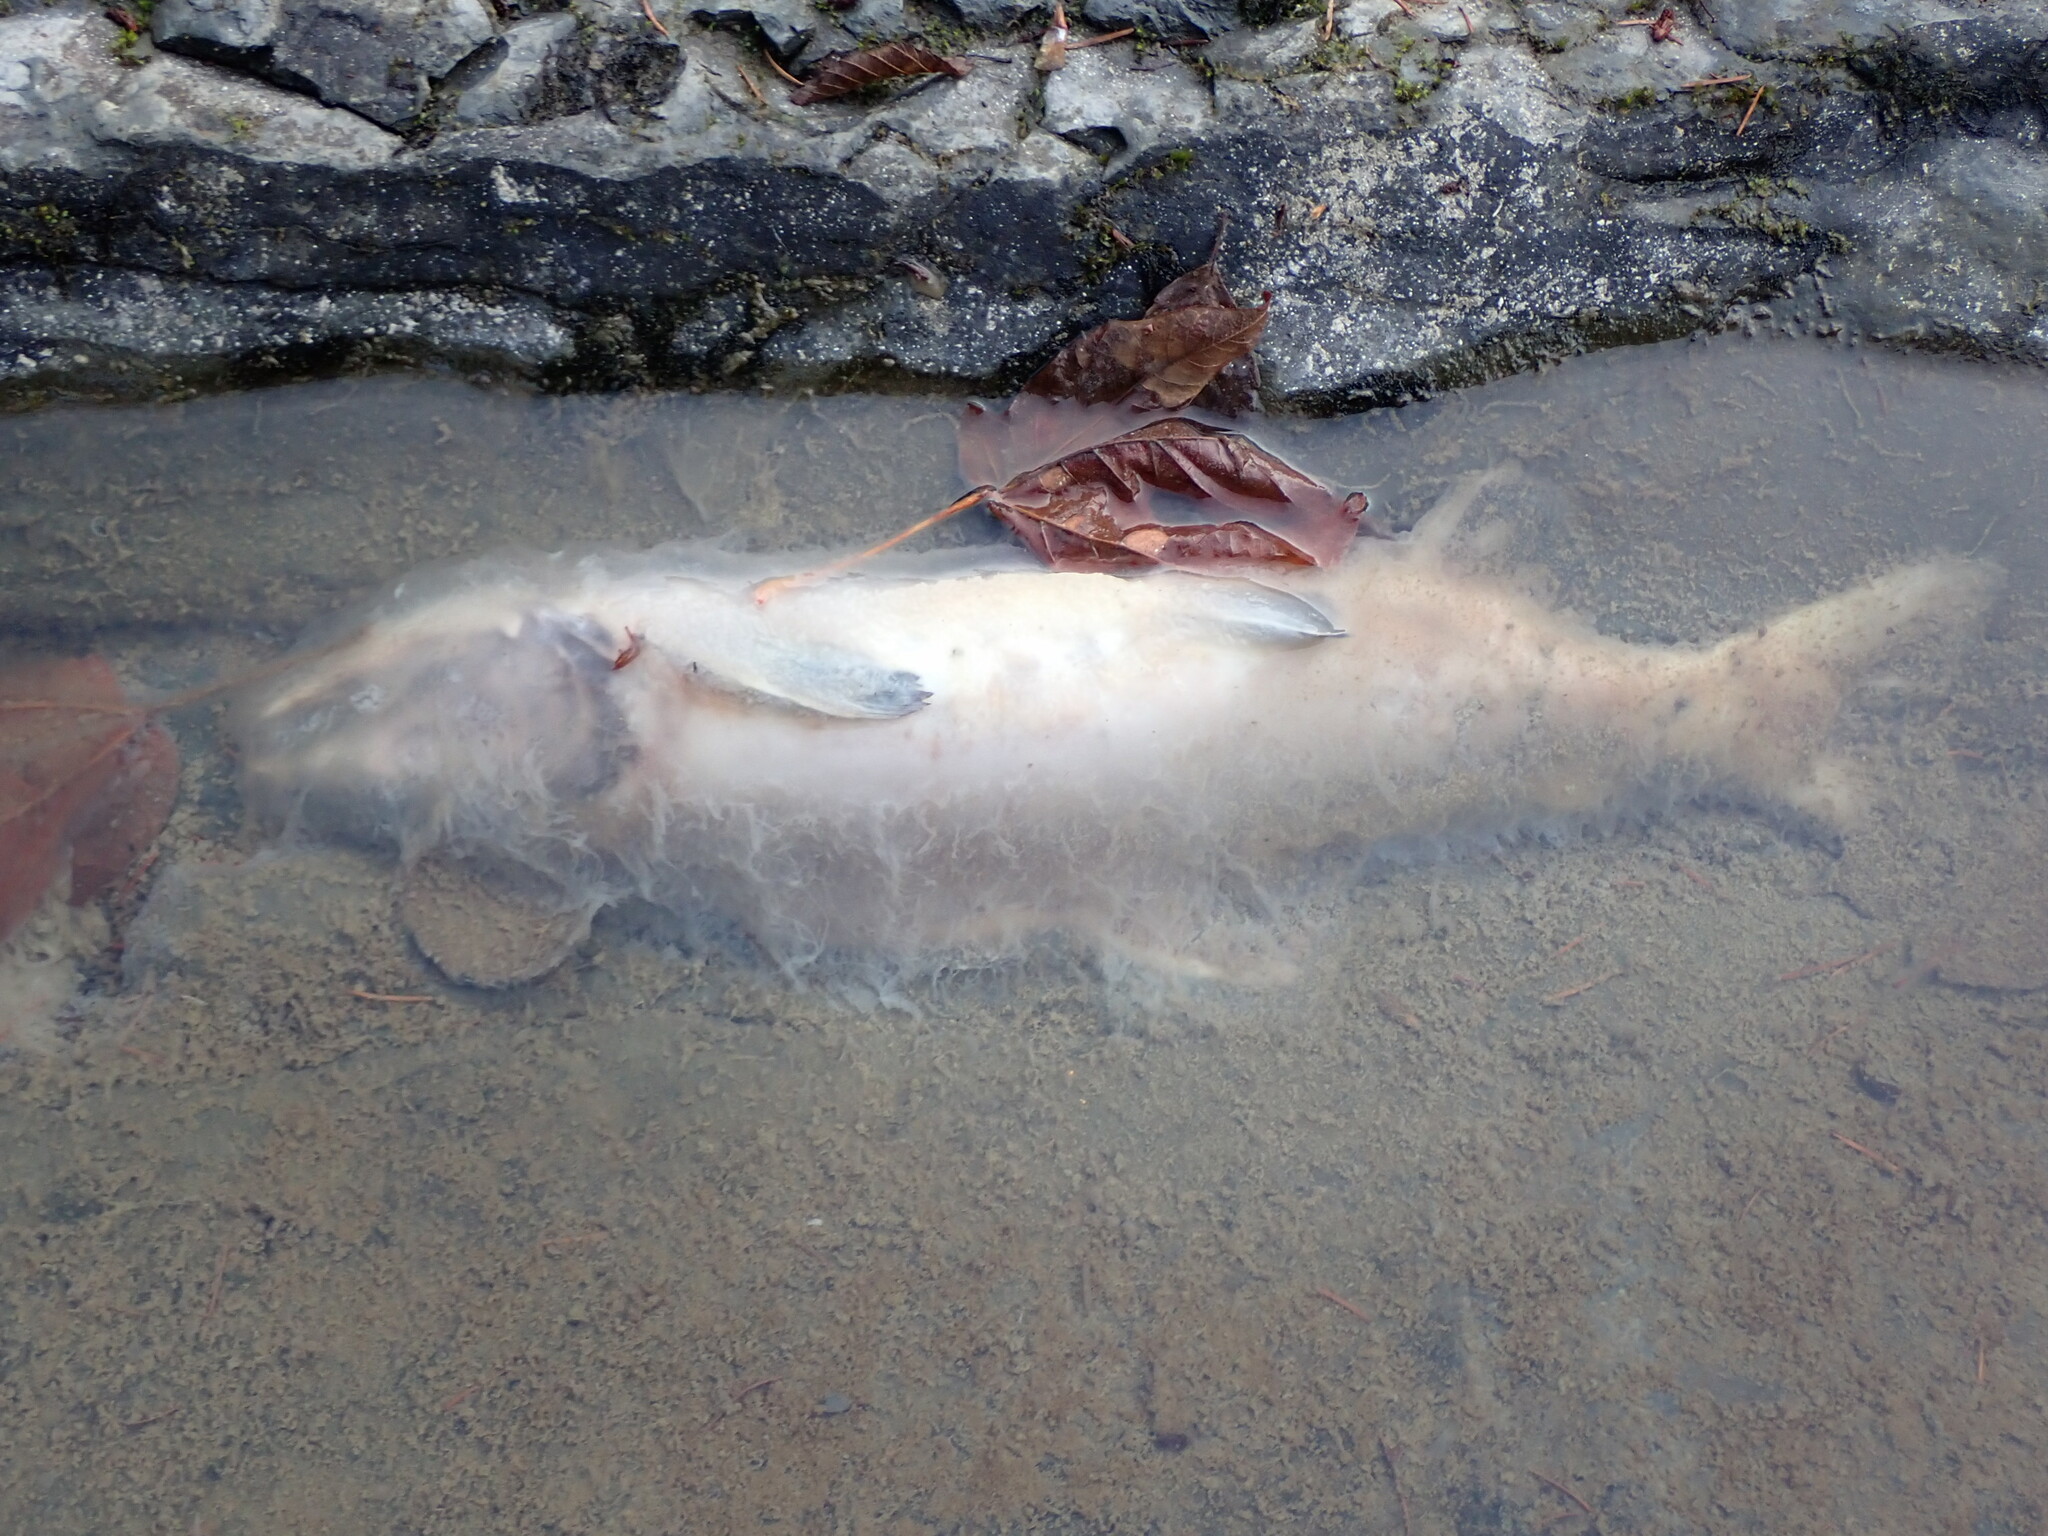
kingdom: Animalia
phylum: Chordata
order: Salmoniformes
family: Salmonidae
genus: Oncorhynchus
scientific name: Oncorhynchus gorbuscha
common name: Humpback salmon
